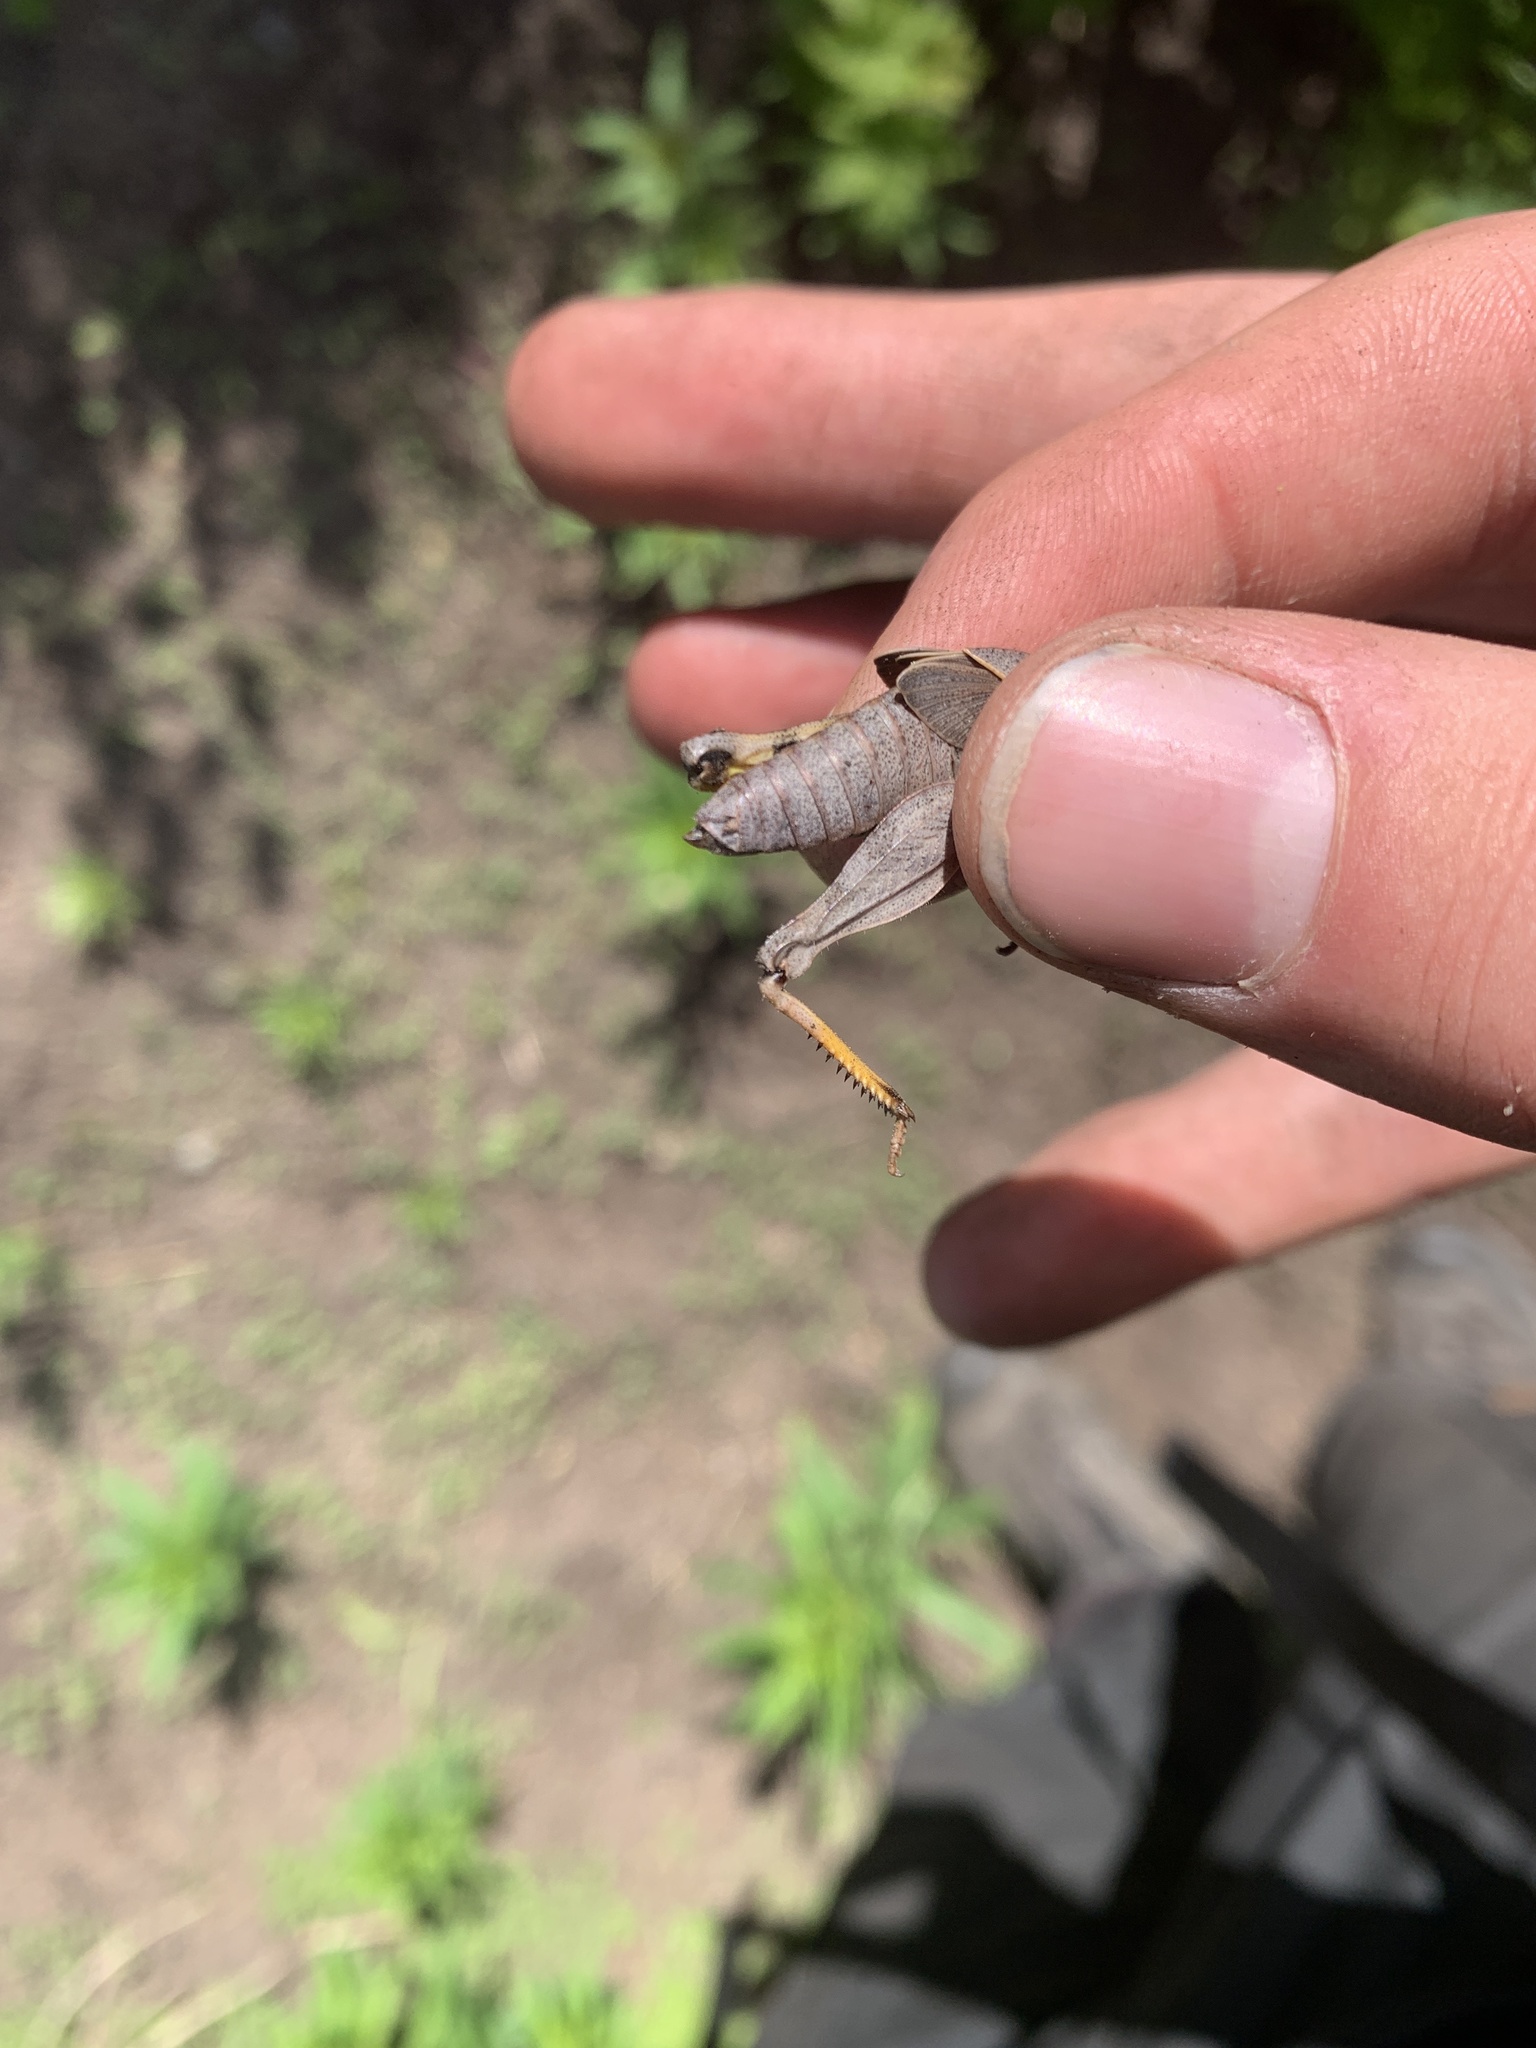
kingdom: Animalia
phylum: Arthropoda
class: Insecta
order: Orthoptera
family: Acrididae
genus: Dissosteira
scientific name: Dissosteira carolina
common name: Carolina grasshopper
